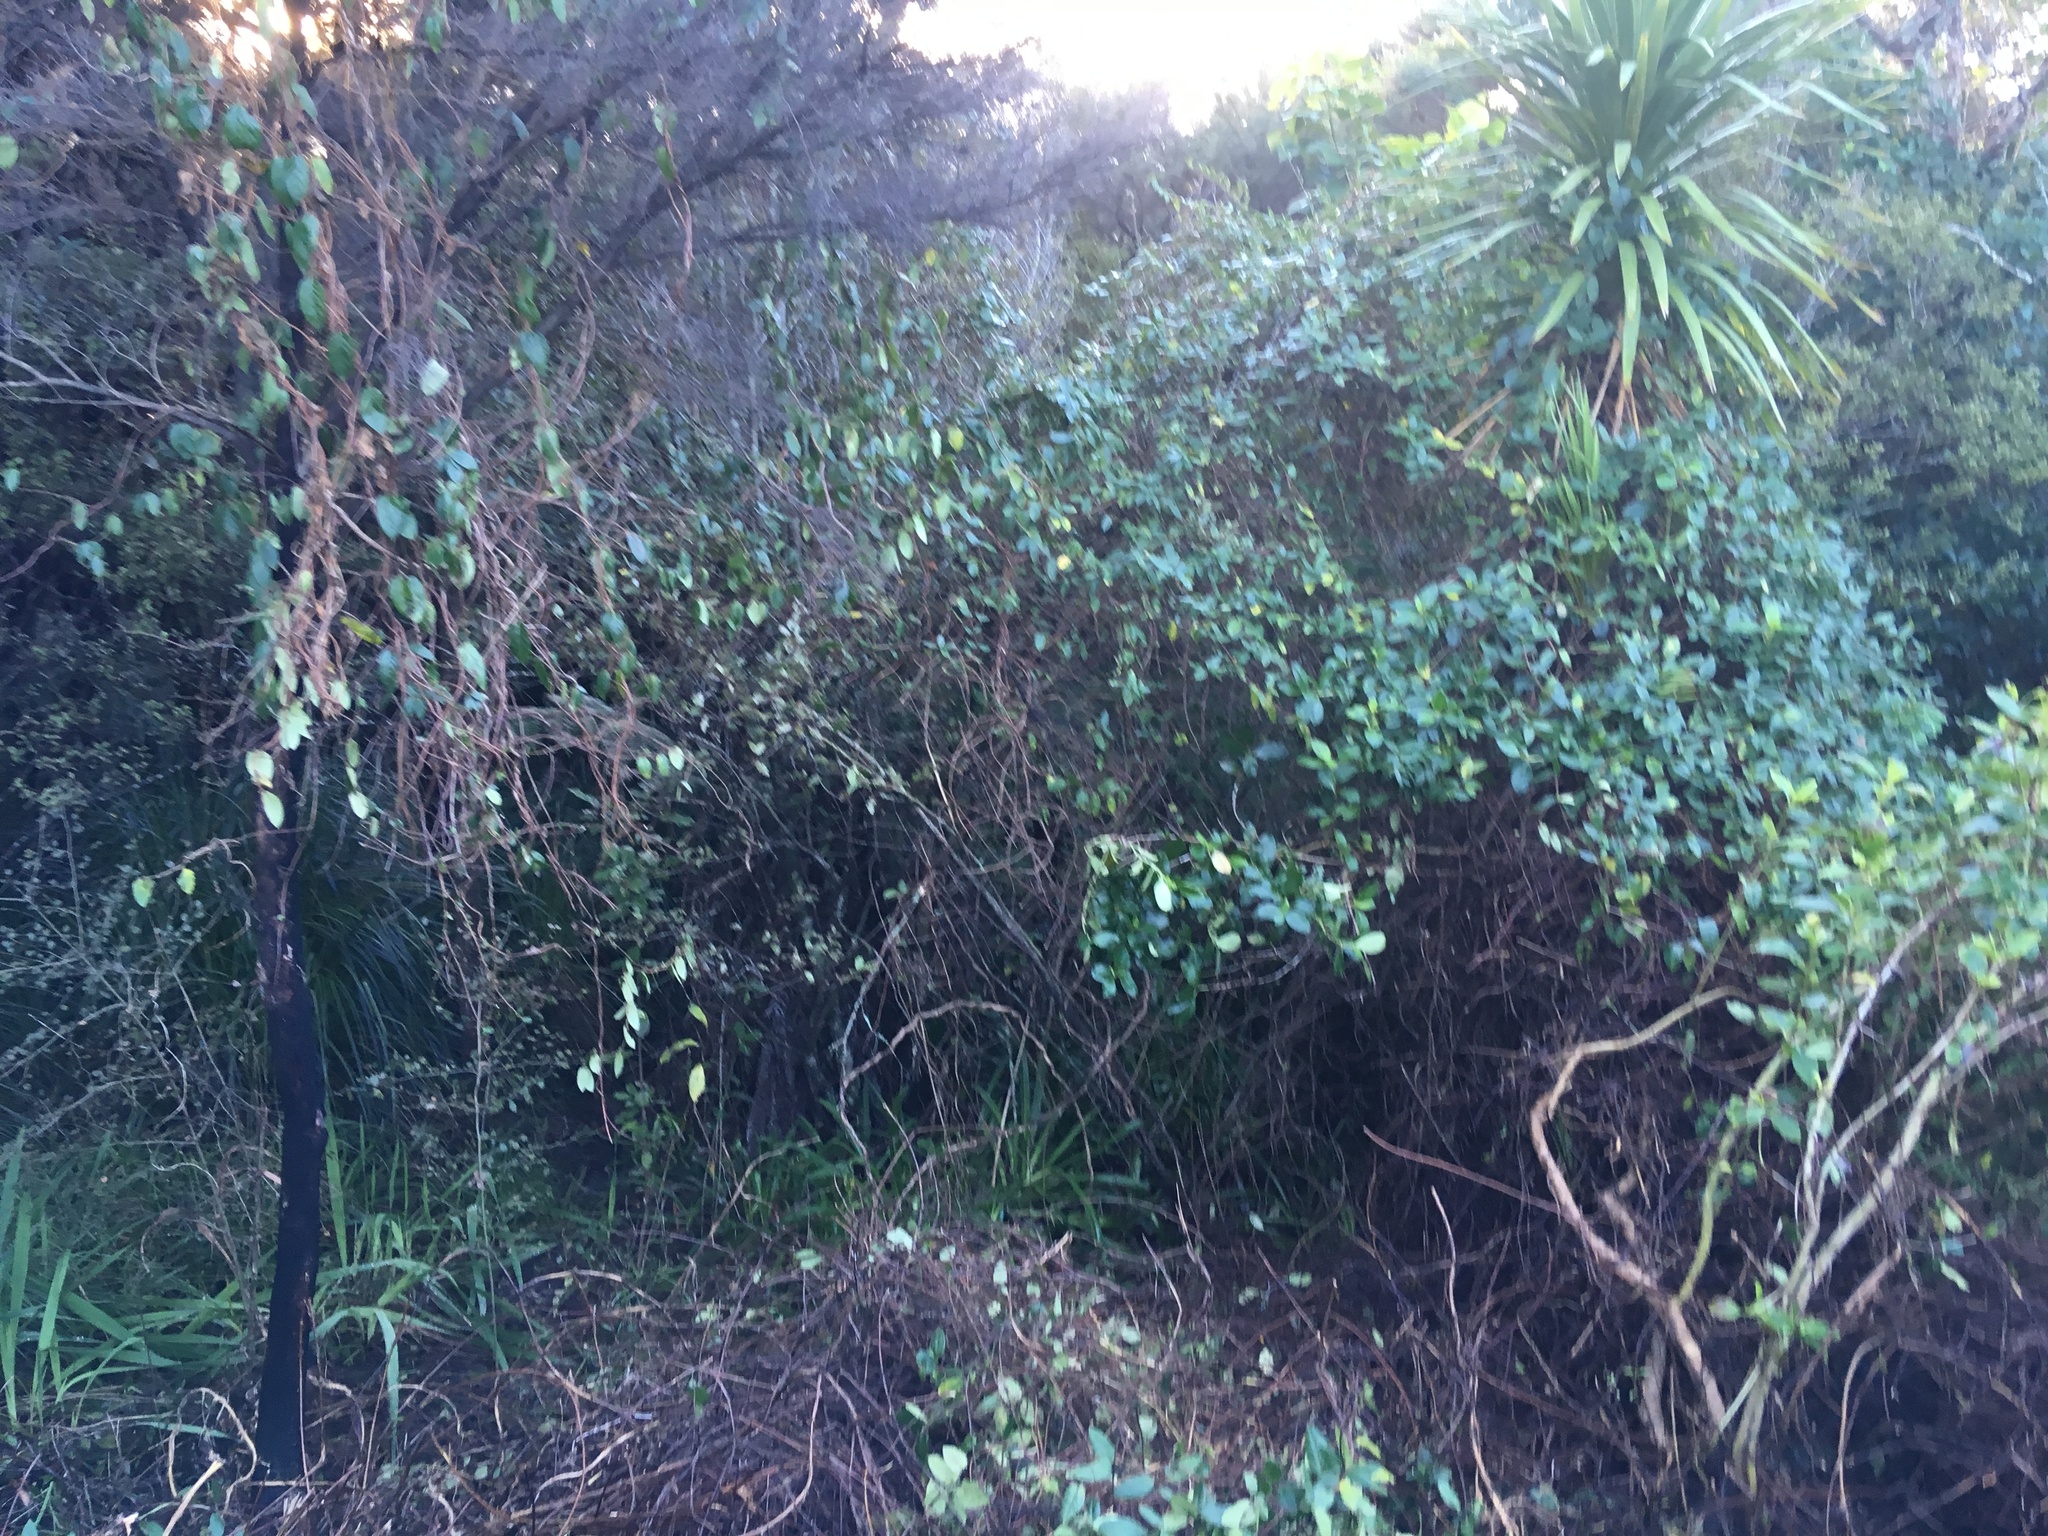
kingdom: Plantae
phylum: Tracheophyta
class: Liliopsida
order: Asparagales
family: Asparagaceae
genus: Cordyline
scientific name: Cordyline australis
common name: Cabbage-palm
